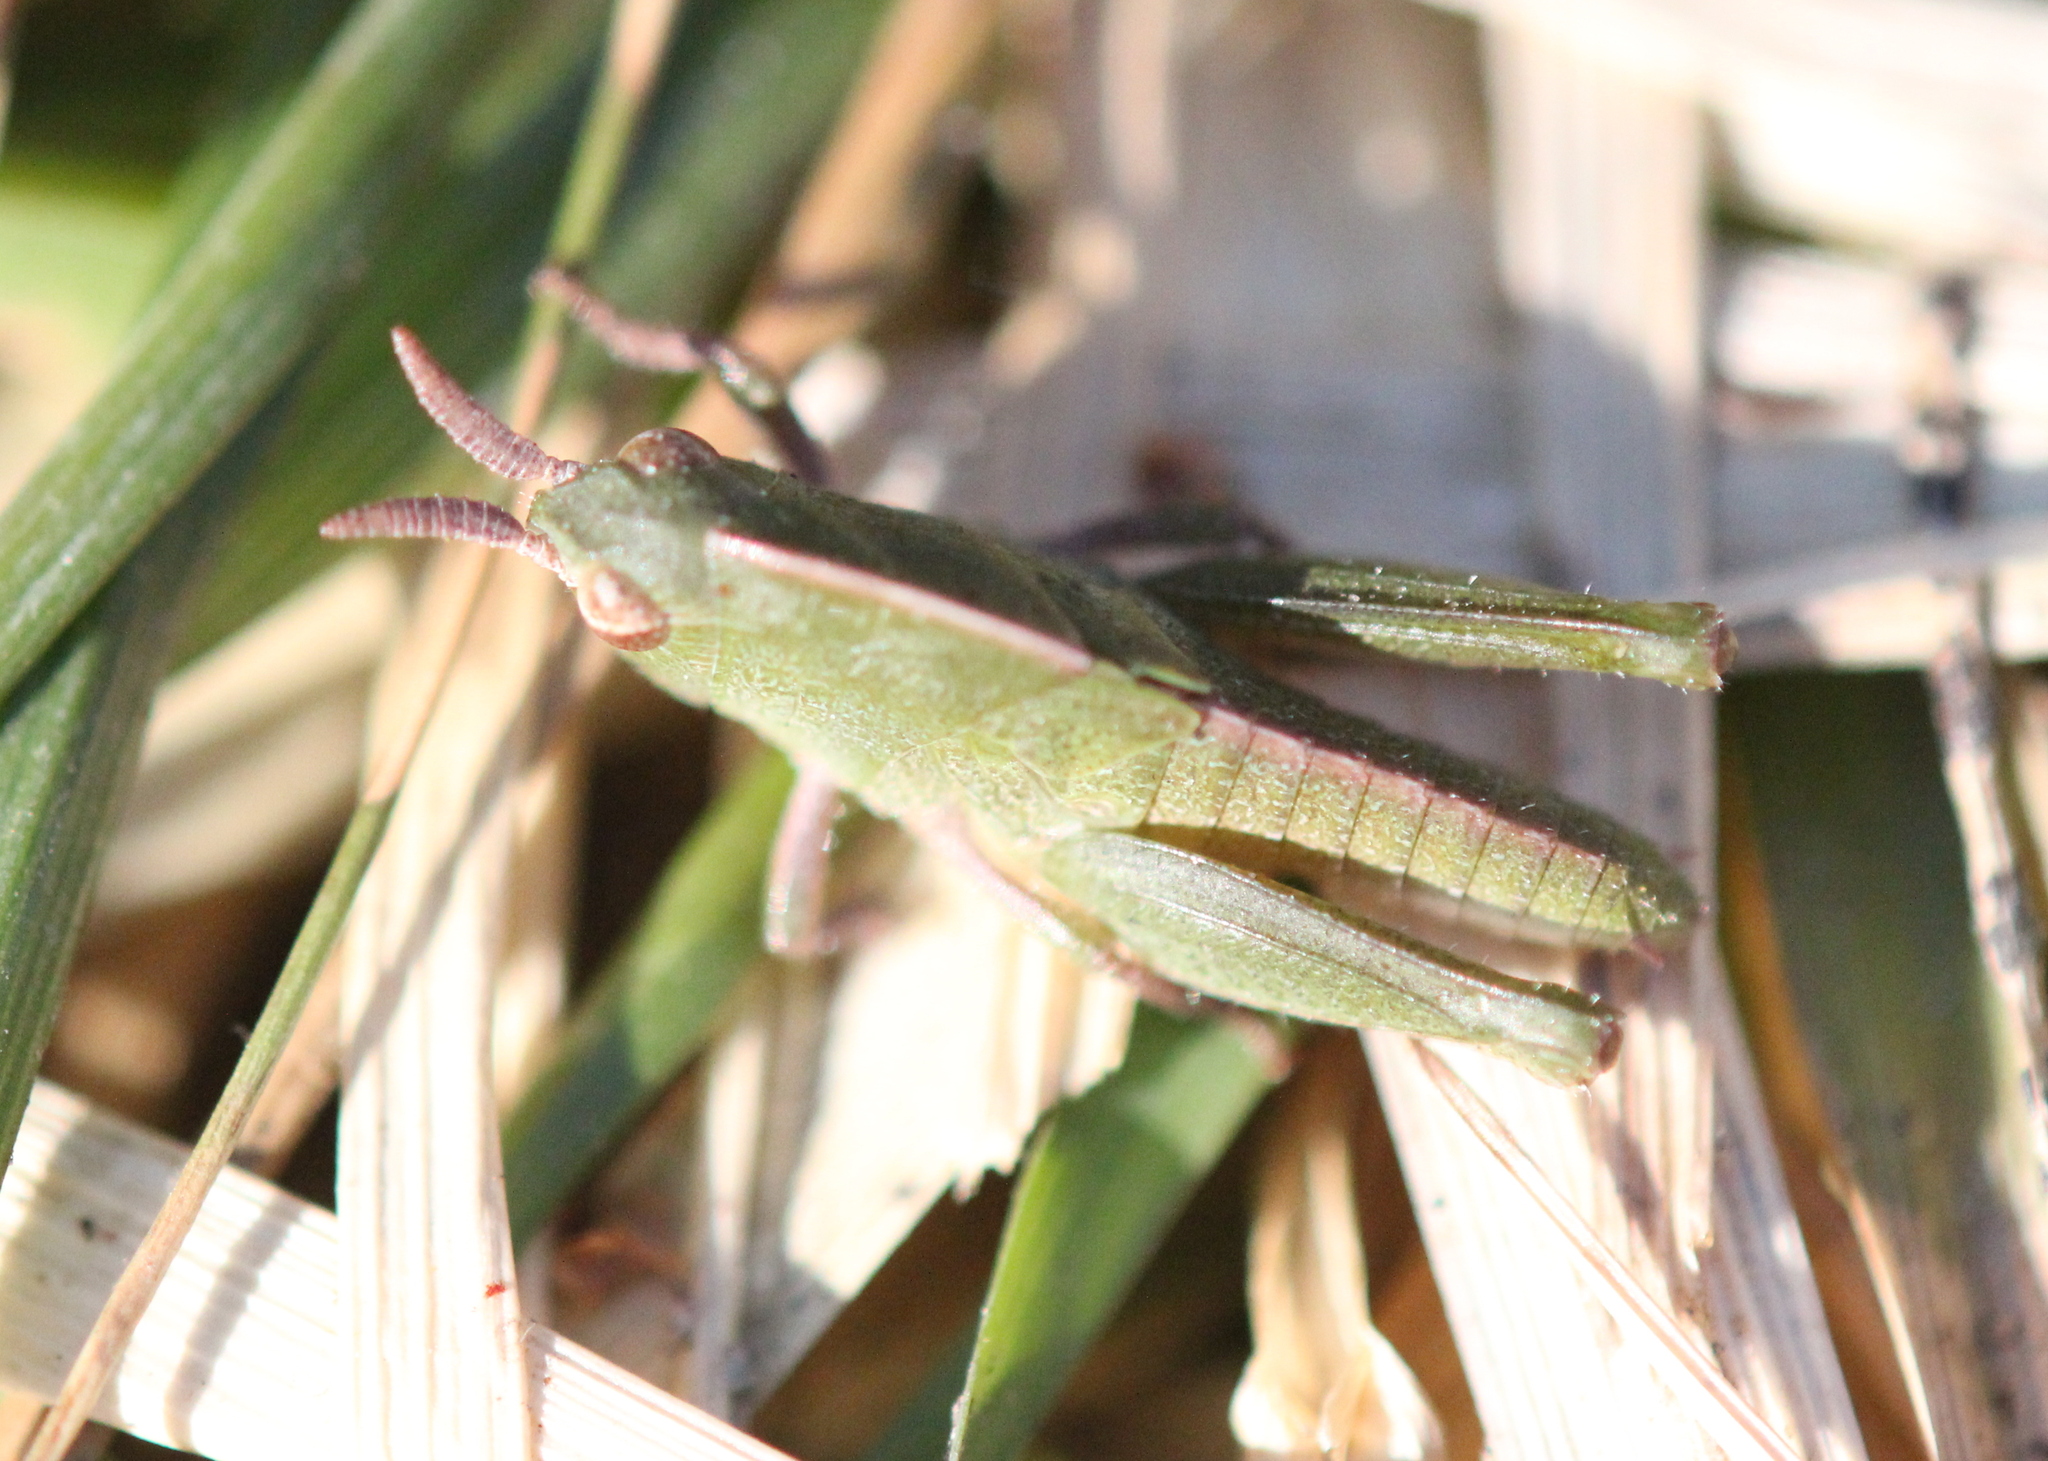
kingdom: Animalia
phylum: Arthropoda
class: Insecta
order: Orthoptera
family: Acrididae
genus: Chortophaga
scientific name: Chortophaga viridifasciata
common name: Green-striped grasshopper
